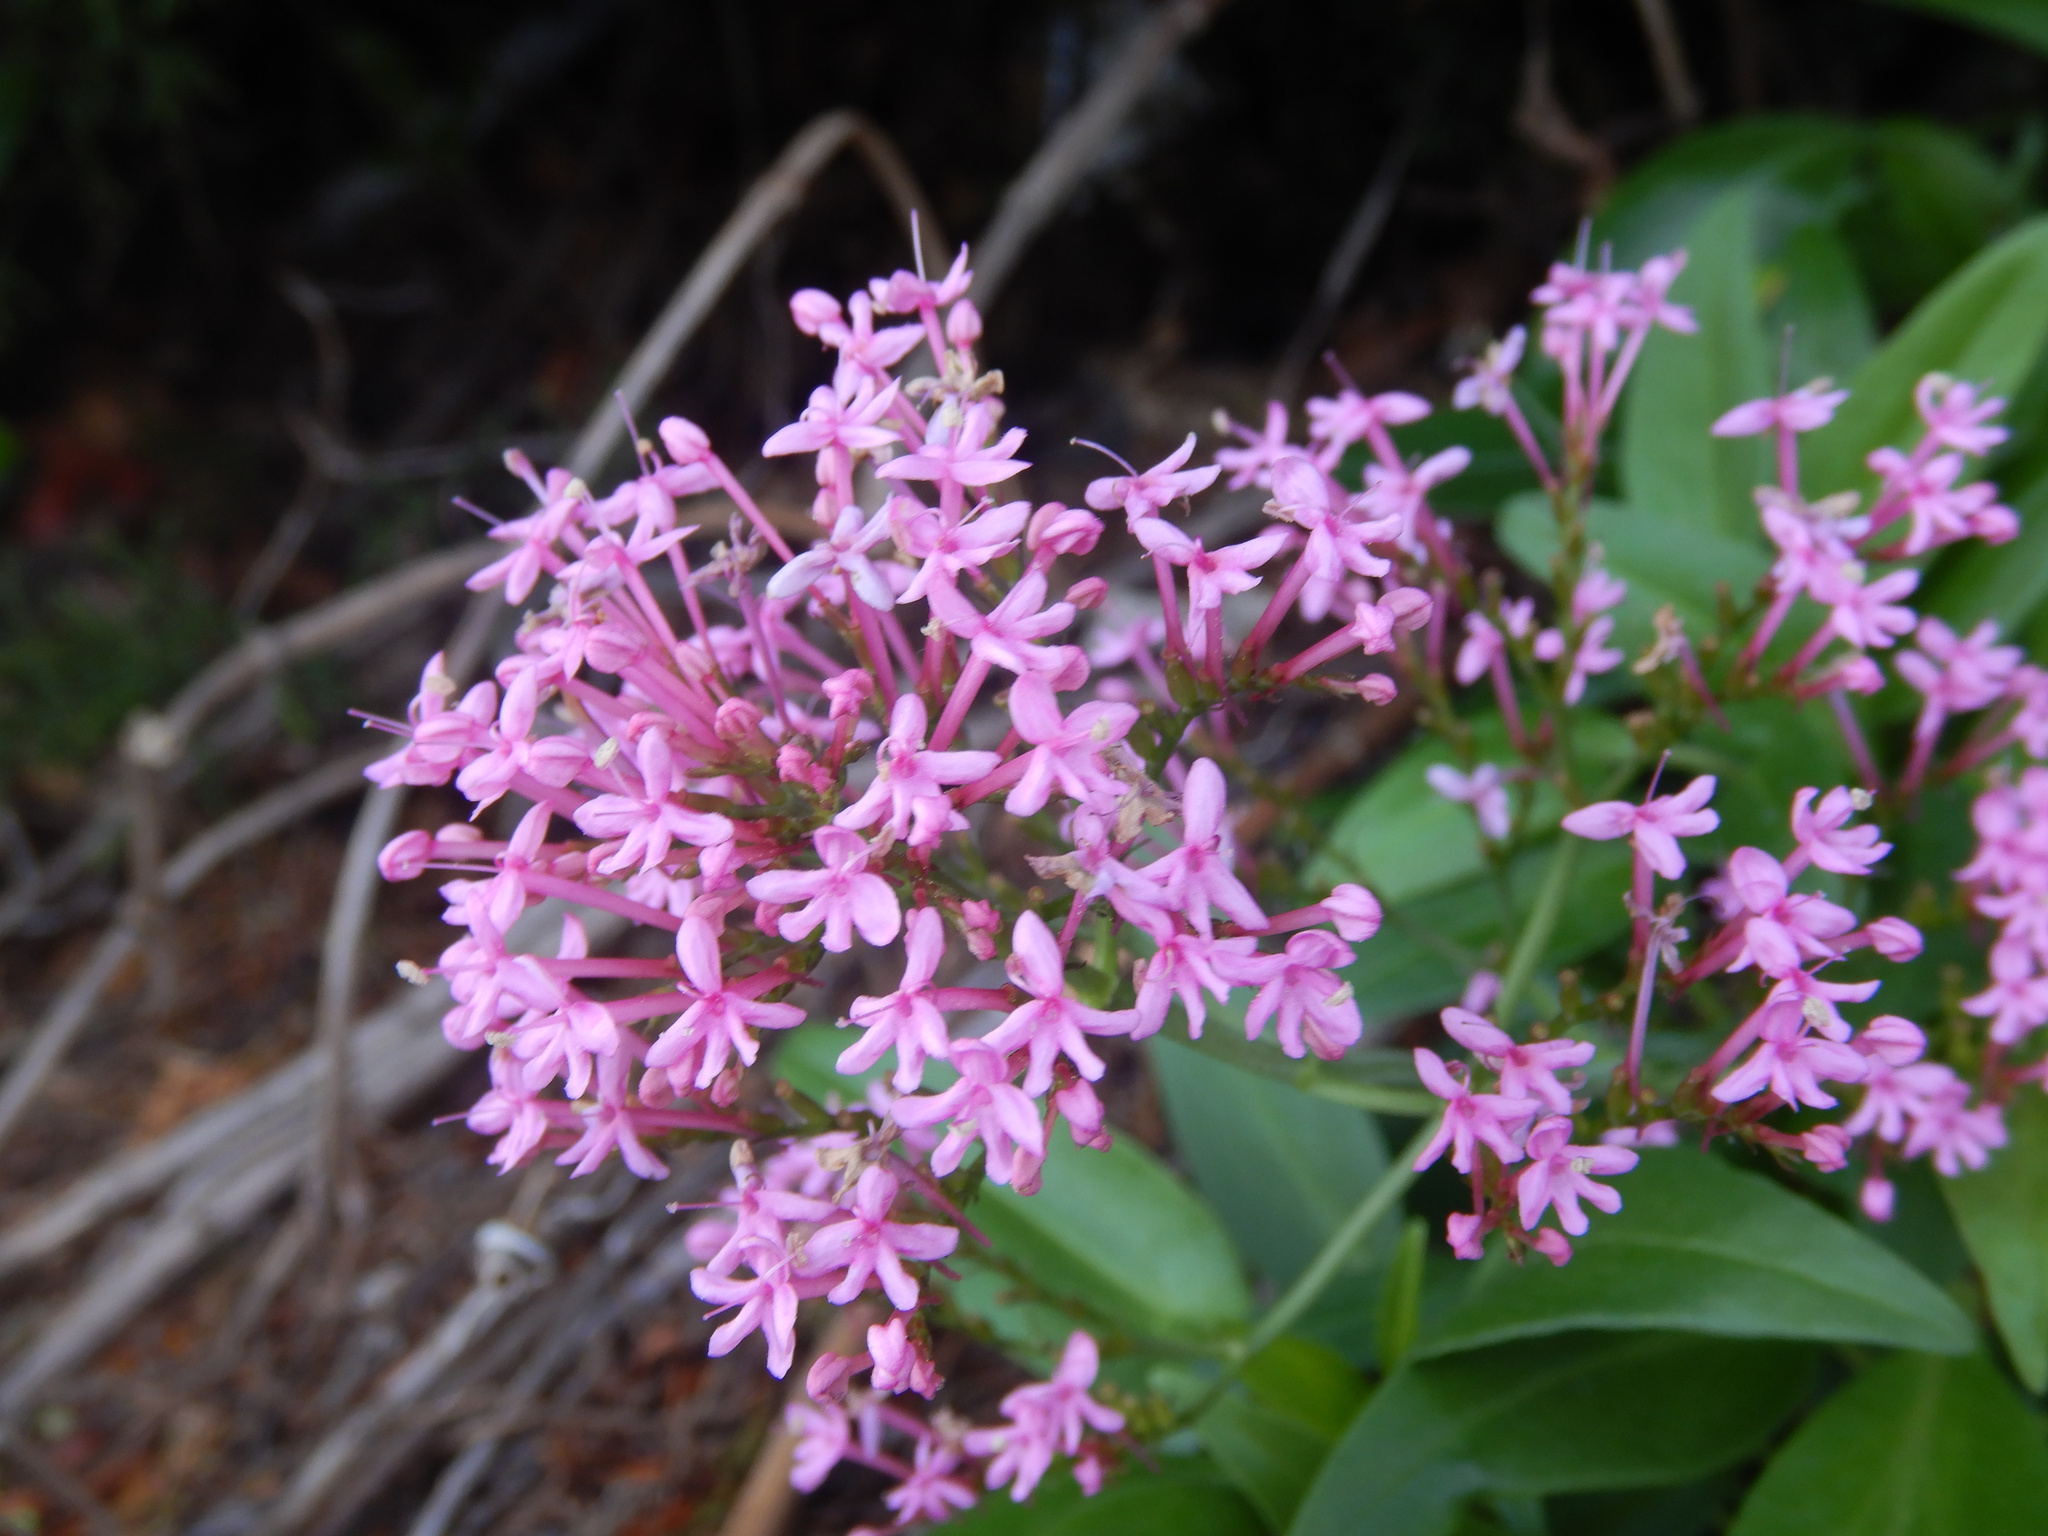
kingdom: Plantae
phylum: Tracheophyta
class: Magnoliopsida
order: Dipsacales
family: Caprifoliaceae
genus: Centranthus
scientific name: Centranthus ruber
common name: Red valerian
